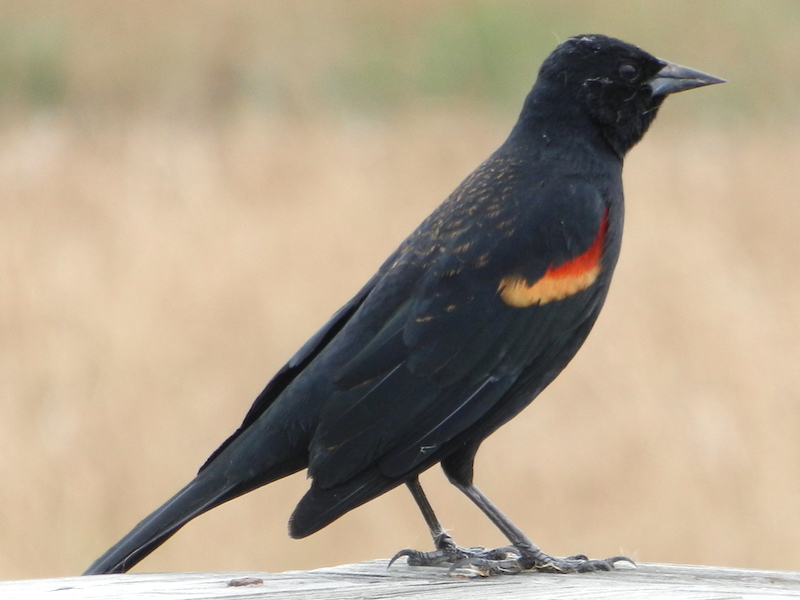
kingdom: Animalia
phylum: Chordata
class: Aves
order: Passeriformes
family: Icteridae
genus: Agelaius
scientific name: Agelaius phoeniceus
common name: Red-winged blackbird
